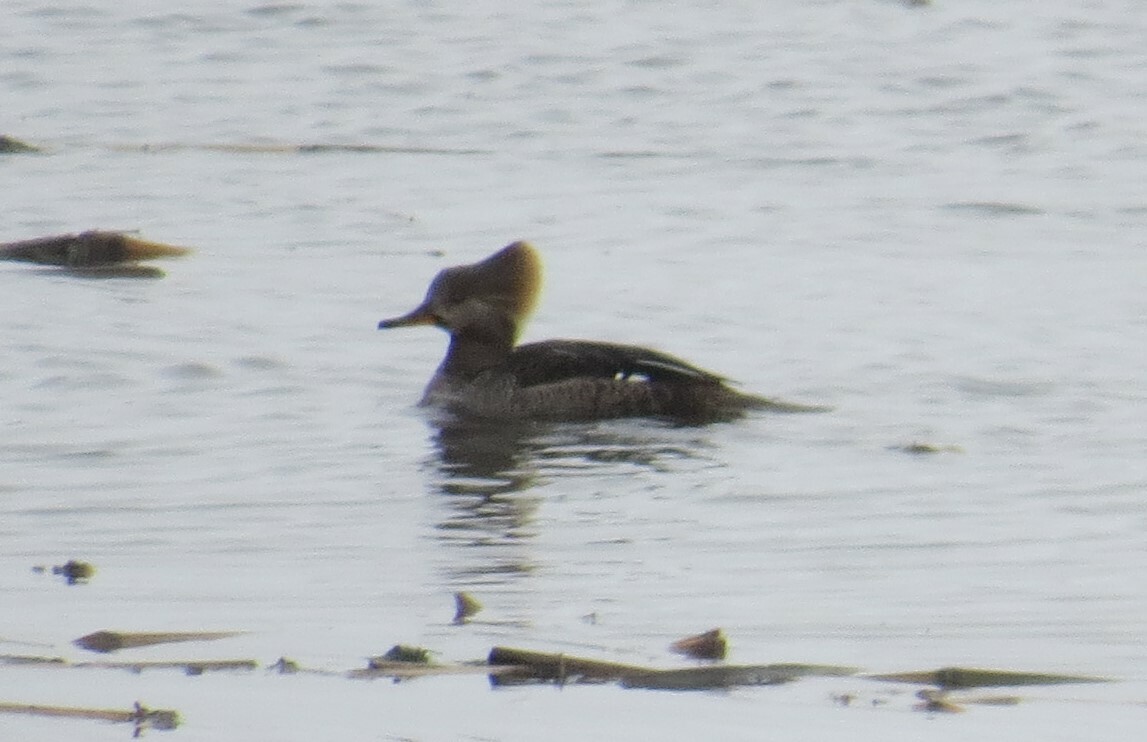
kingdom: Animalia
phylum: Chordata
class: Aves
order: Anseriformes
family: Anatidae
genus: Lophodytes
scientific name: Lophodytes cucullatus
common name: Hooded merganser
